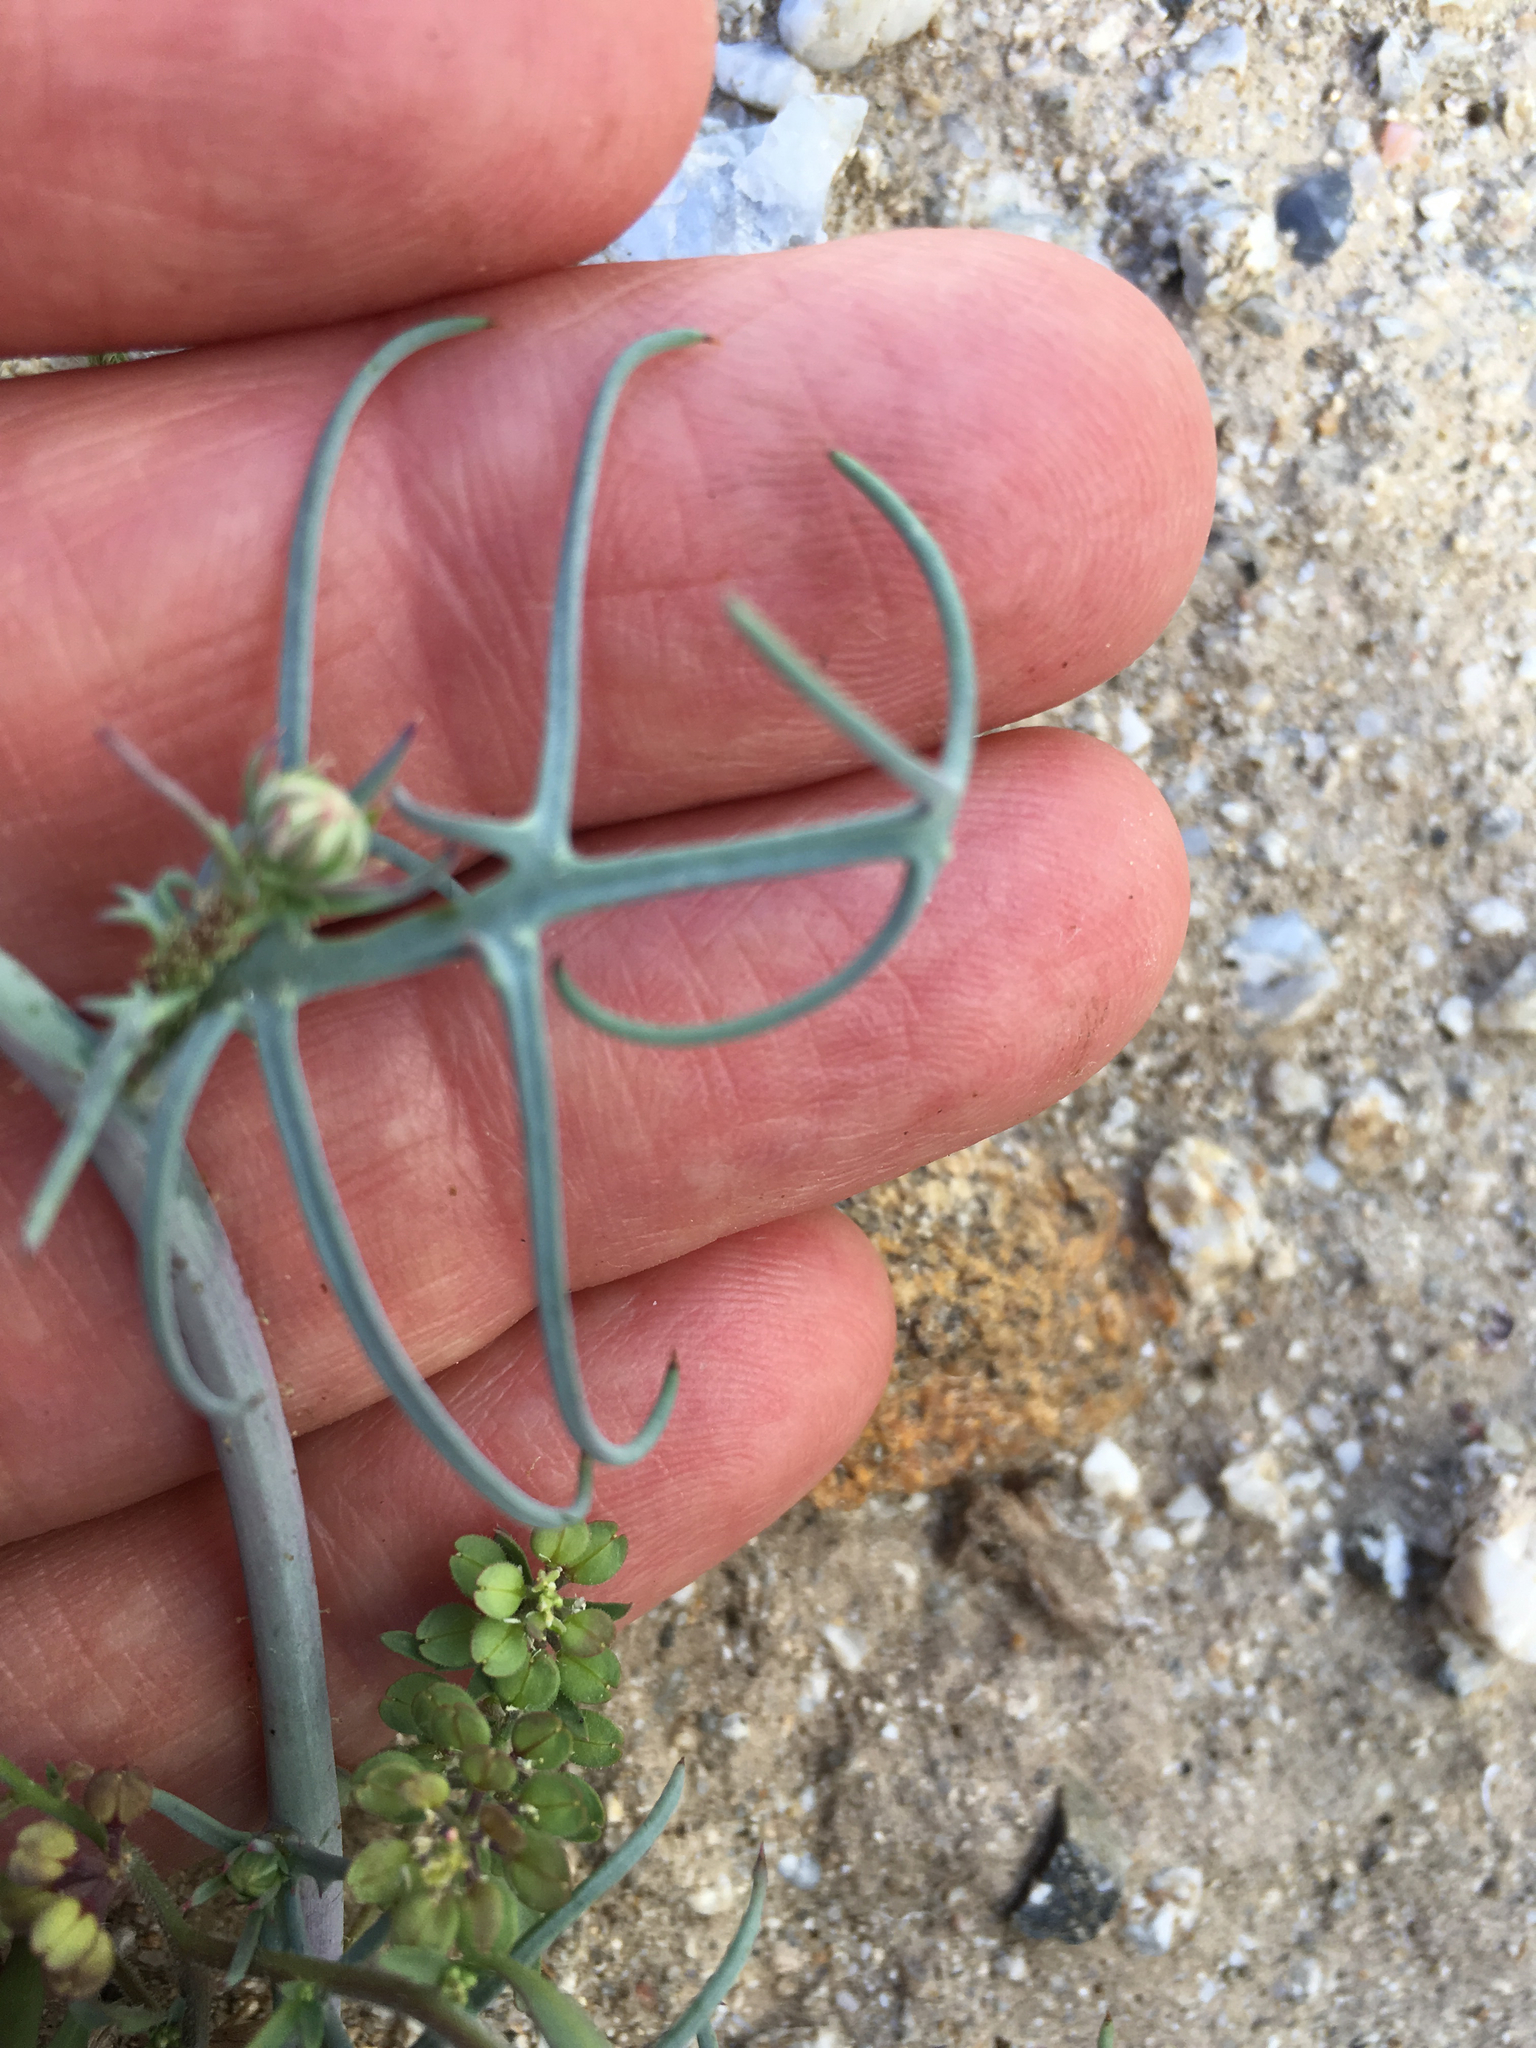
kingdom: Plantae
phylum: Tracheophyta
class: Magnoliopsida
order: Asterales
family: Asteraceae
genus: Calycoseris
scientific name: Calycoseris wrightii
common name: White tackstem
